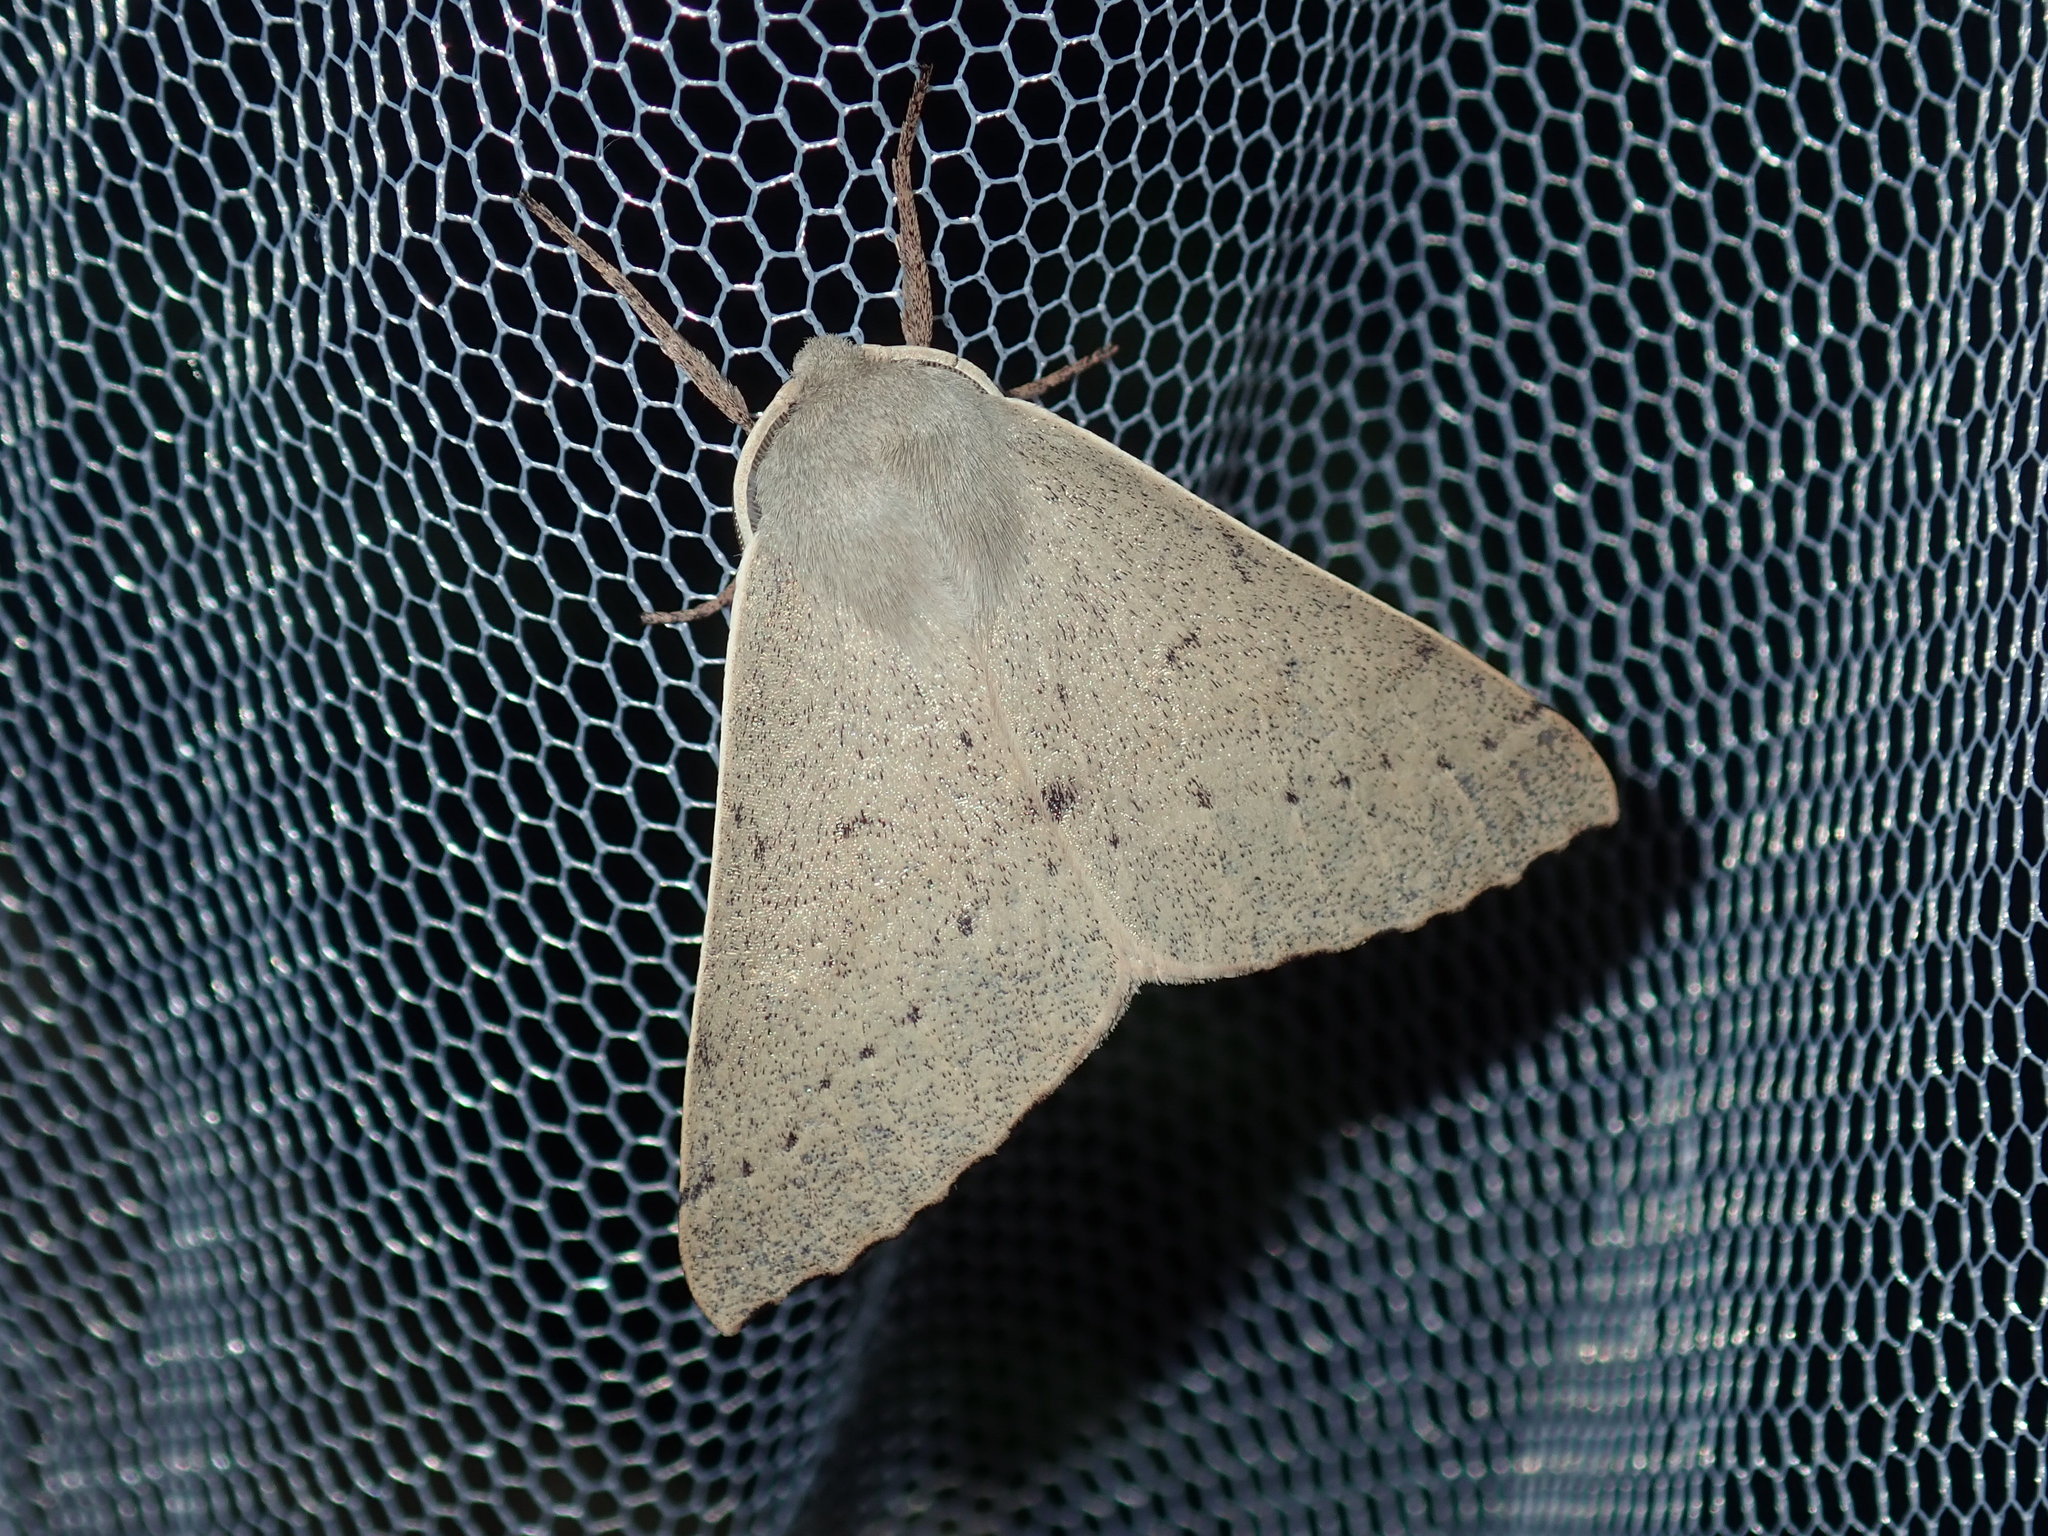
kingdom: Animalia
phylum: Arthropoda
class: Insecta
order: Lepidoptera
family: Geometridae
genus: Arhodia
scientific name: Arhodia lasiocamparia
